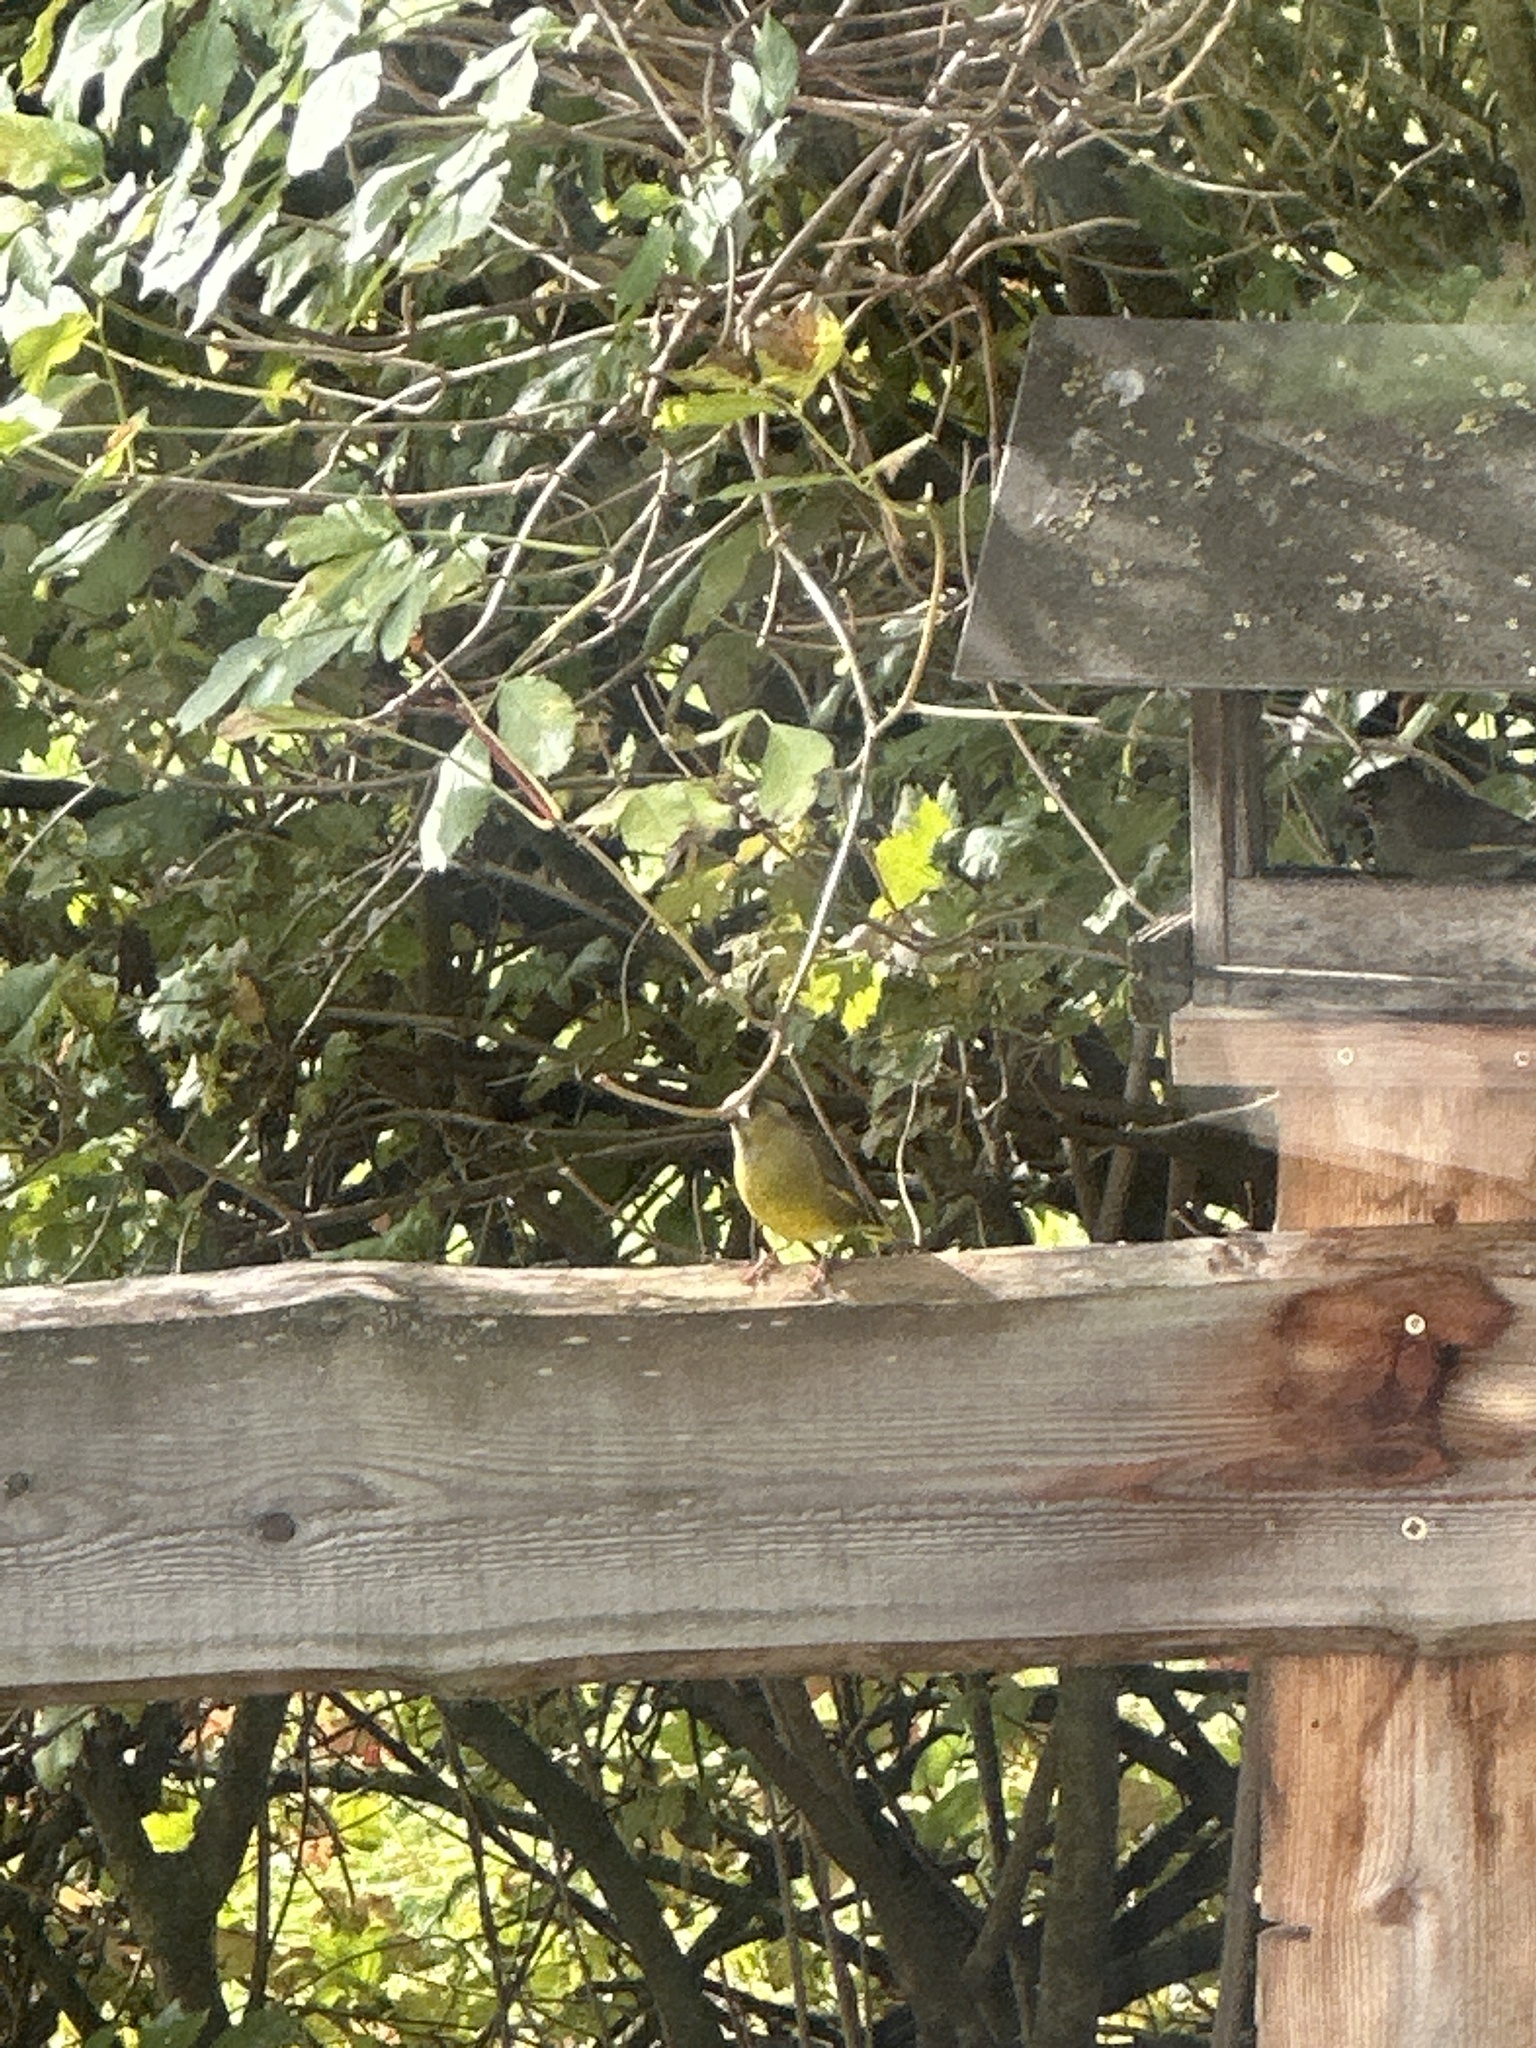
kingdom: Plantae
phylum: Tracheophyta
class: Liliopsida
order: Poales
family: Poaceae
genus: Chloris
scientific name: Chloris chloris
